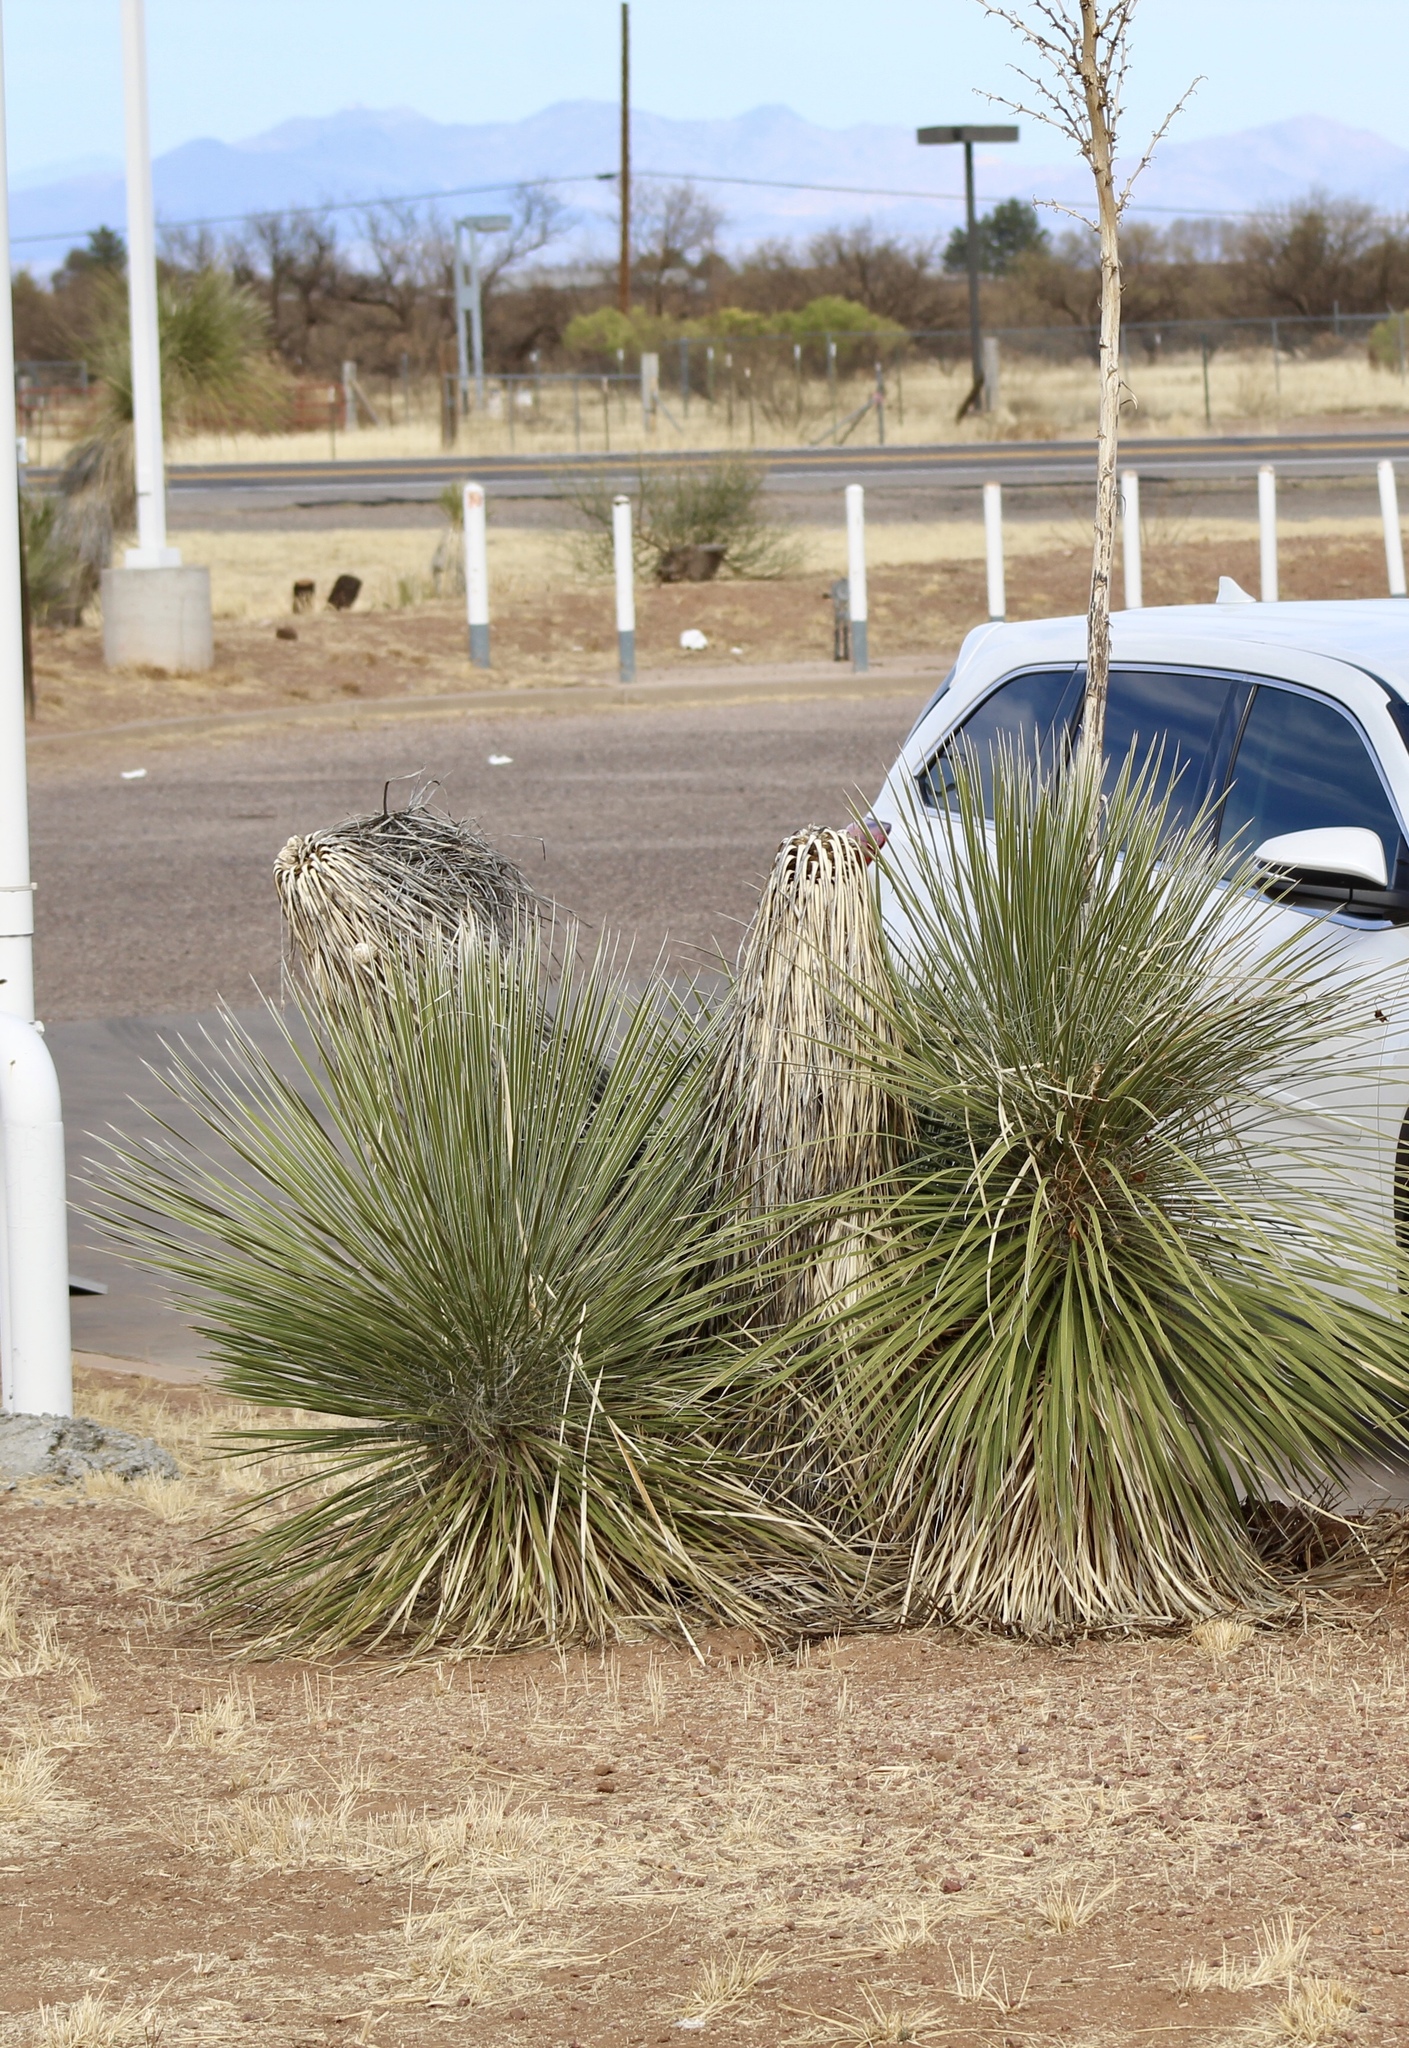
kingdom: Plantae
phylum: Tracheophyta
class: Liliopsida
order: Asparagales
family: Asparagaceae
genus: Yucca
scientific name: Yucca elata
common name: Palmella
